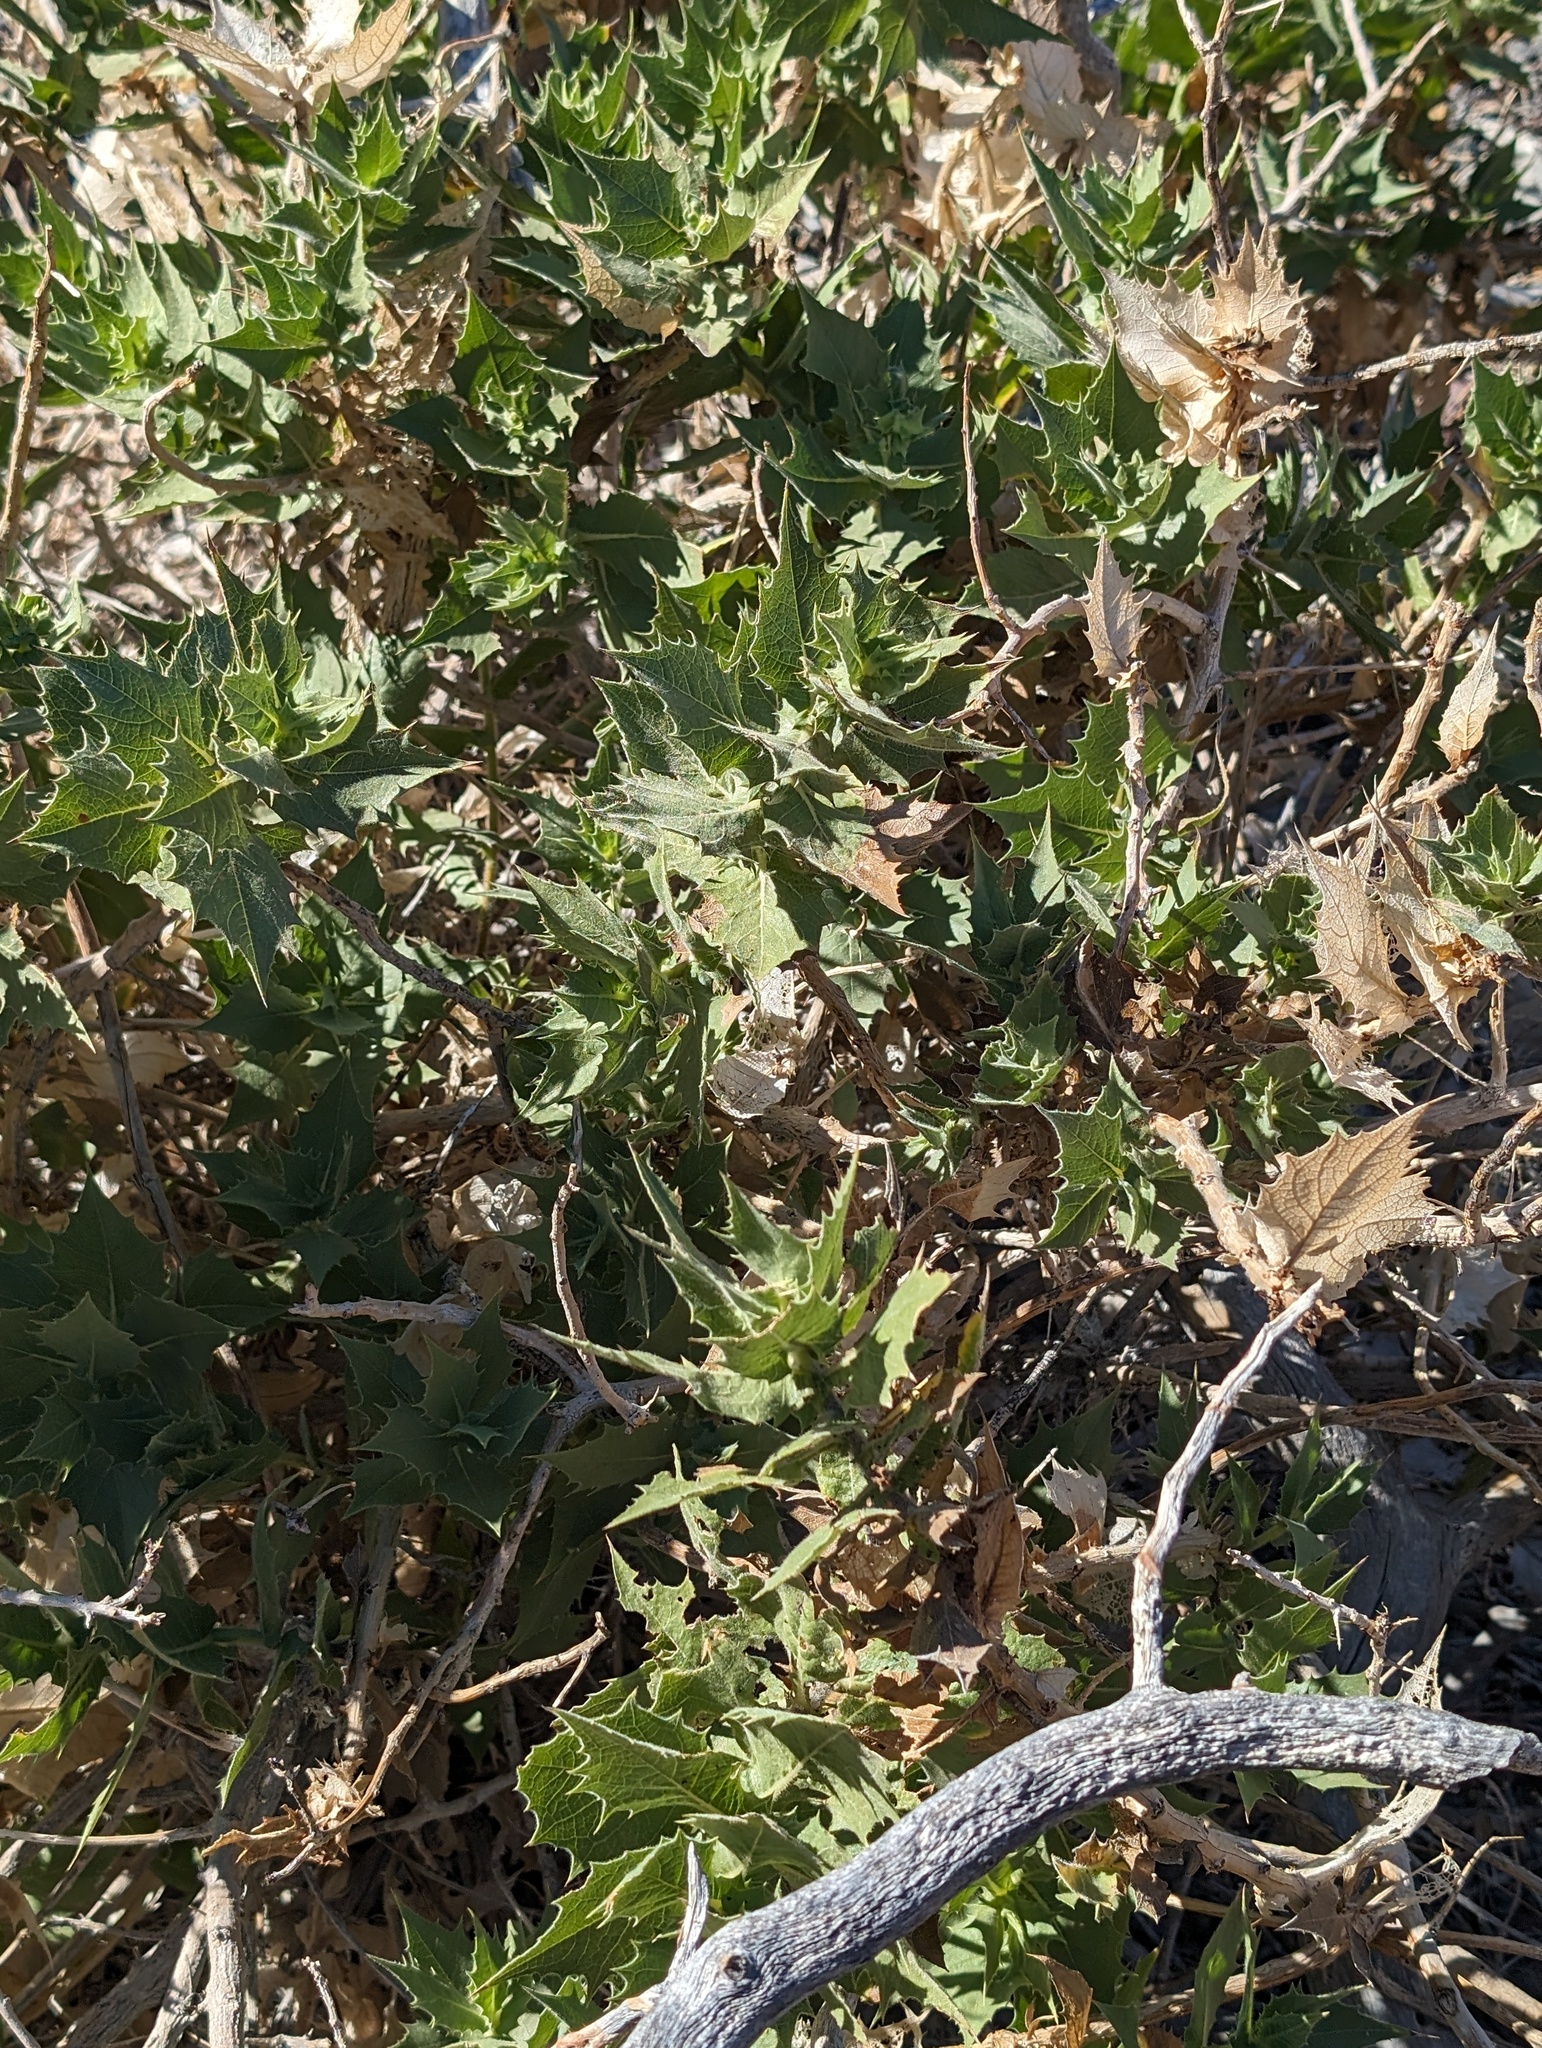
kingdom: Plantae
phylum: Tracheophyta
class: Magnoliopsida
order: Asterales
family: Asteraceae
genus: Ambrosia
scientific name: Ambrosia ilicifolia
